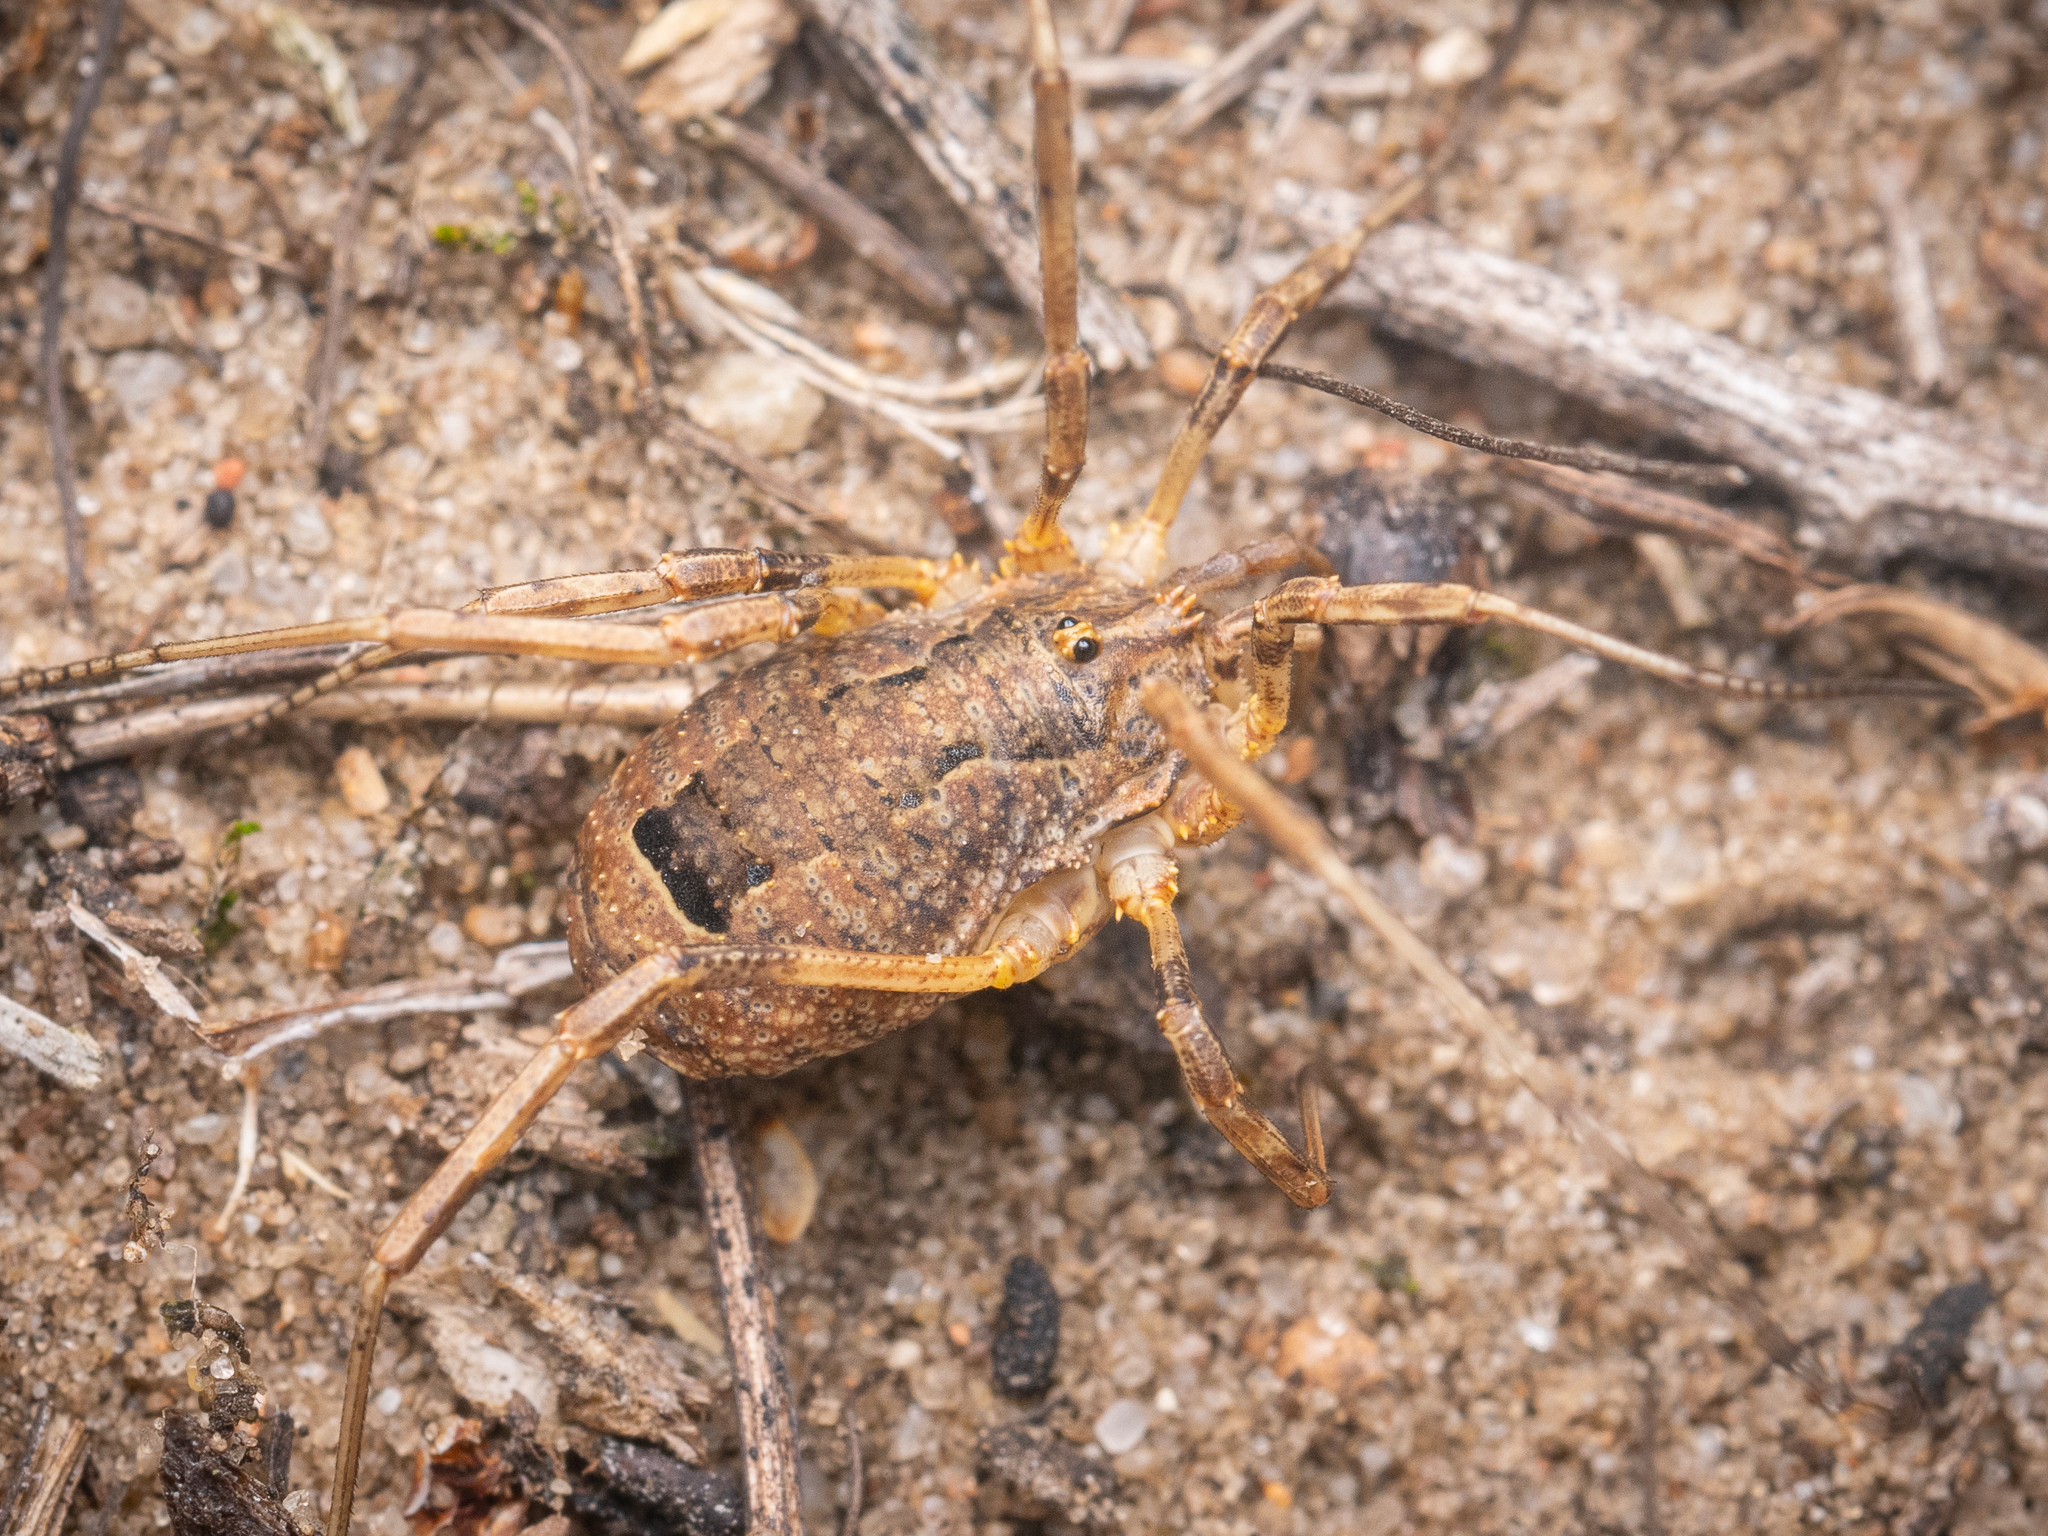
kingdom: Animalia
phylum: Arthropoda
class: Arachnida
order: Opiliones
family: Phalangiidae
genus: Odiellus
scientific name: Odiellus spinosus
